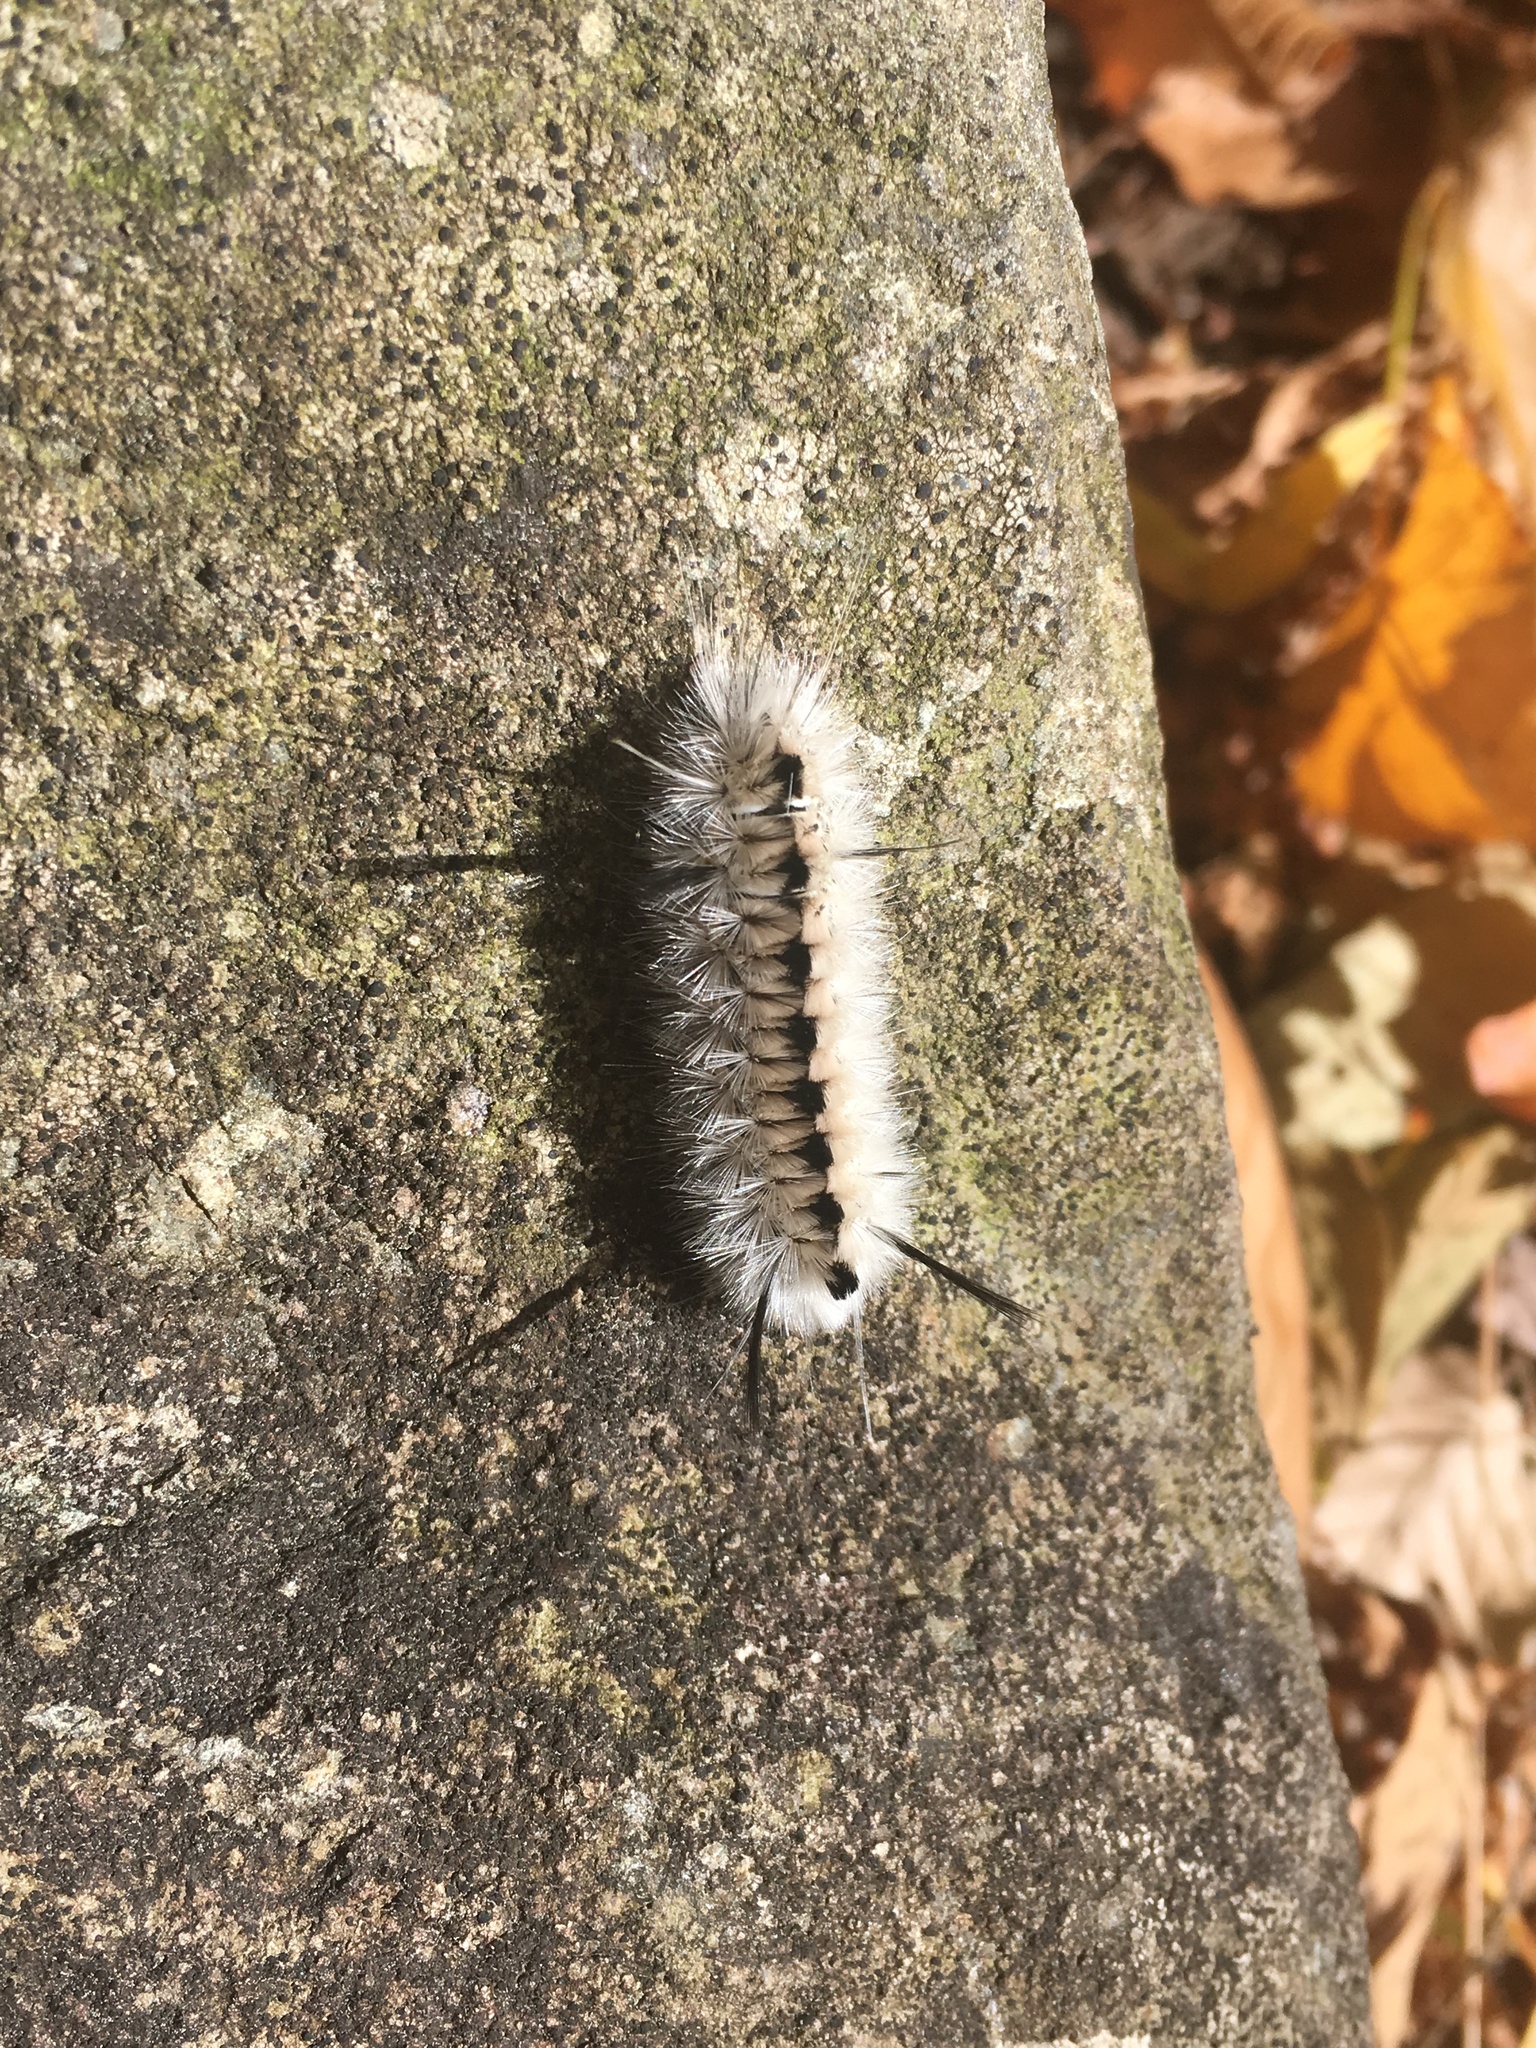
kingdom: Animalia
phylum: Arthropoda
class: Insecta
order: Lepidoptera
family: Erebidae
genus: Lophocampa
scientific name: Lophocampa caryae
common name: Hickory tussock moth
